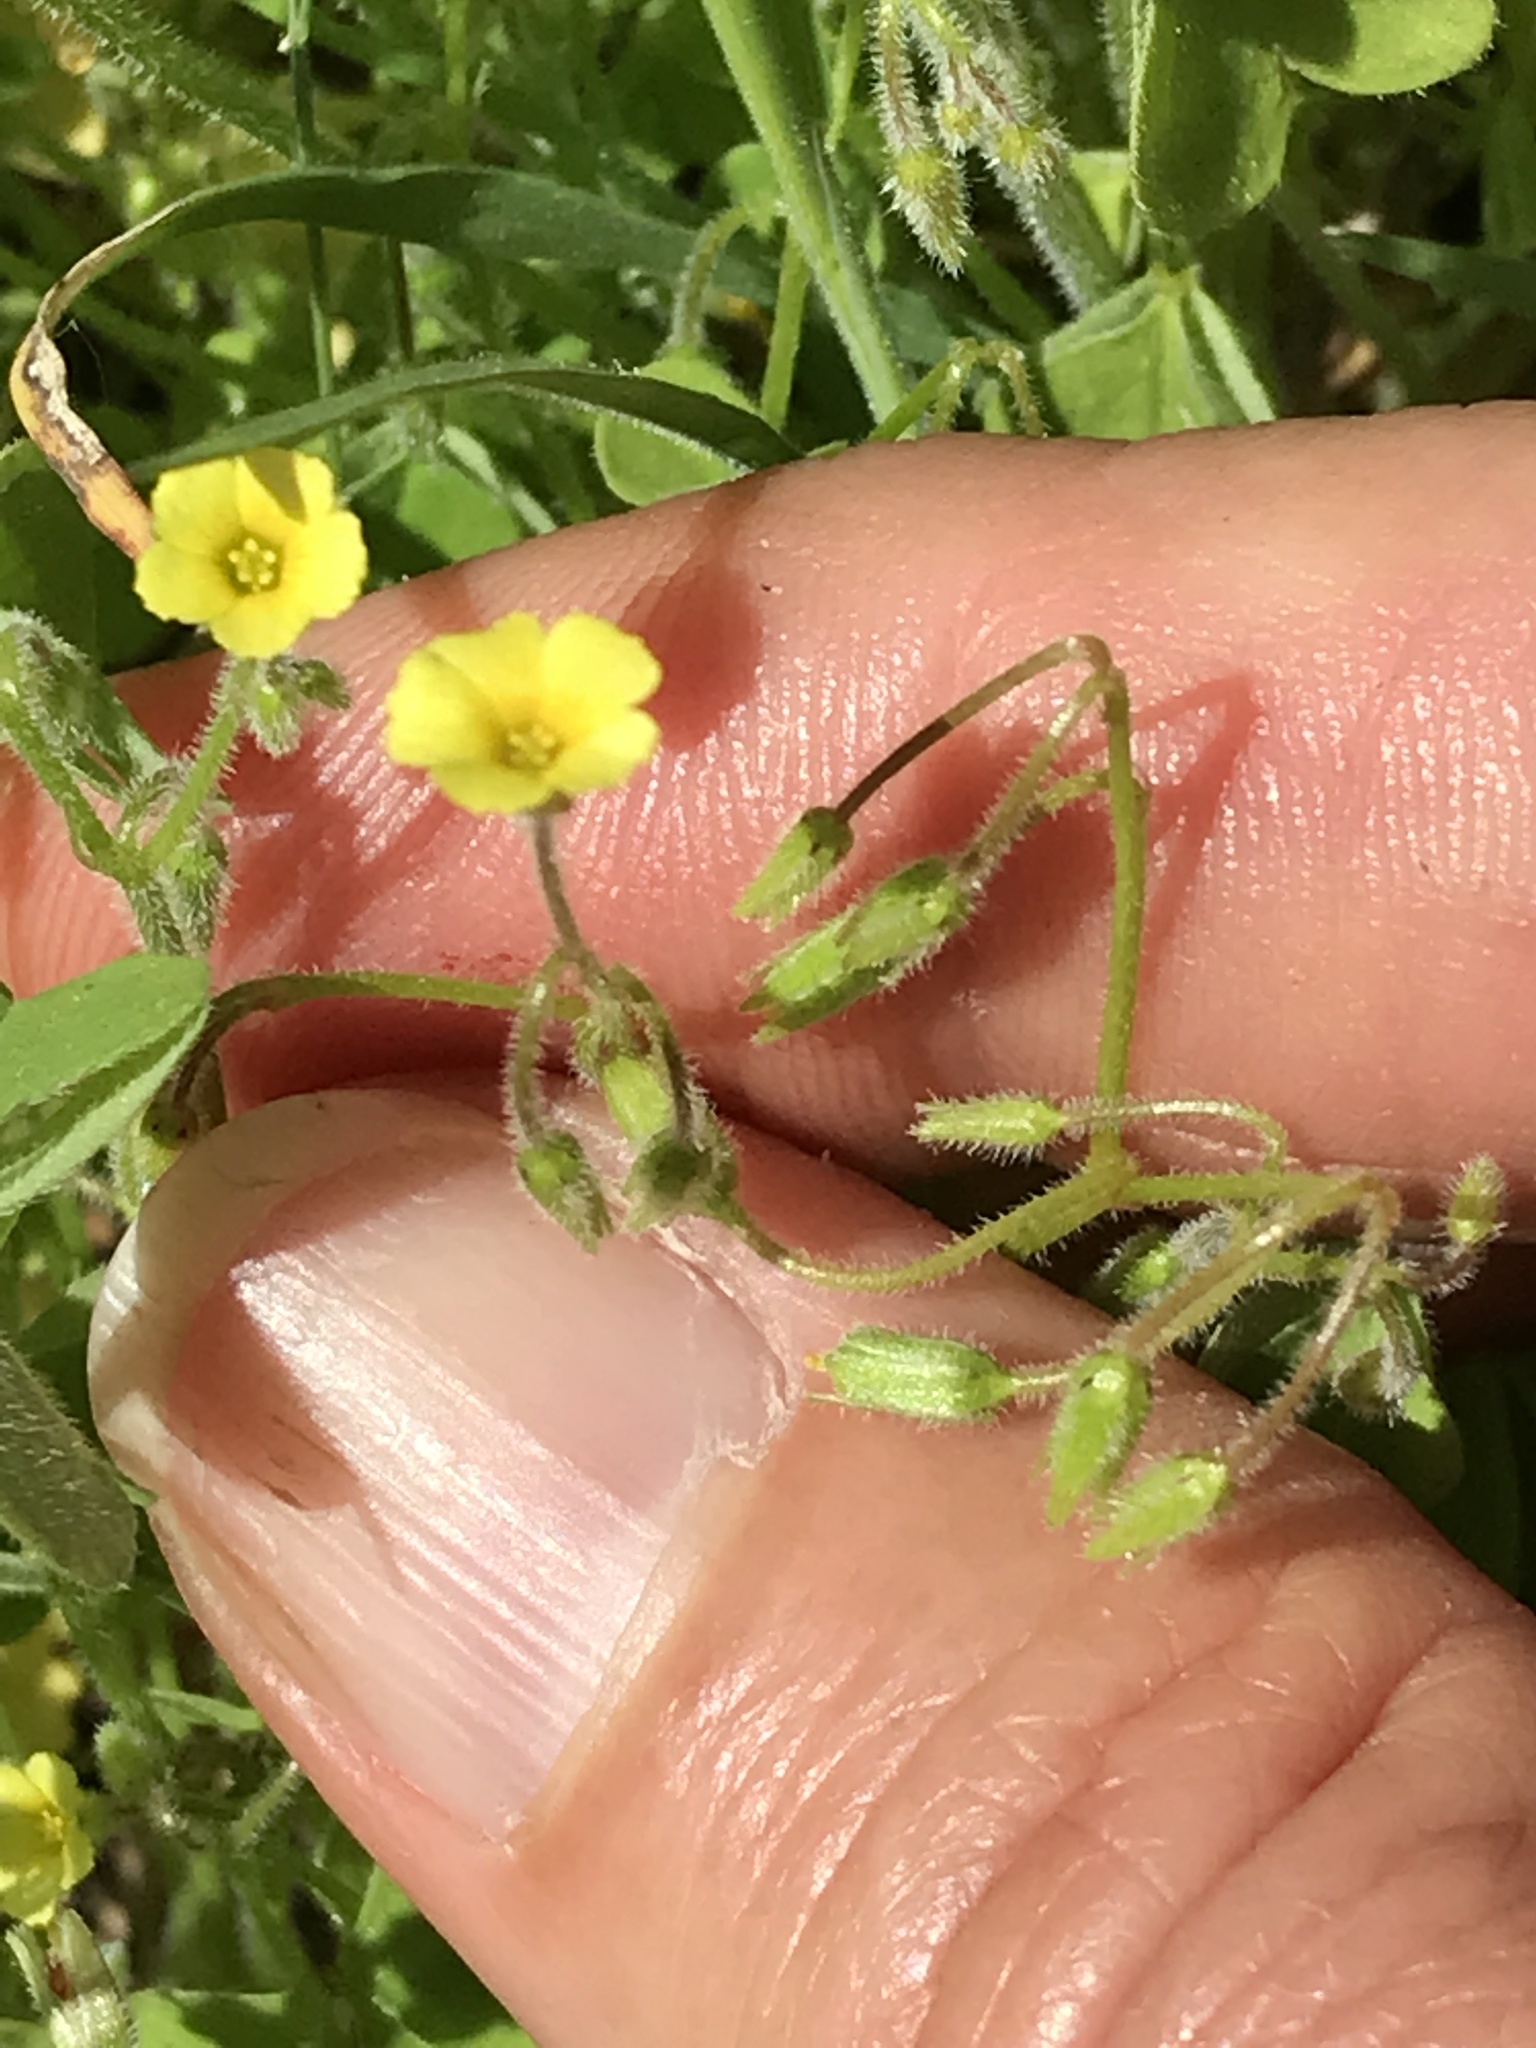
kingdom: Plantae
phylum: Tracheophyta
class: Magnoliopsida
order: Oxalidales
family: Oxalidaceae
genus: Oxalis
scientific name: Oxalis laxa
